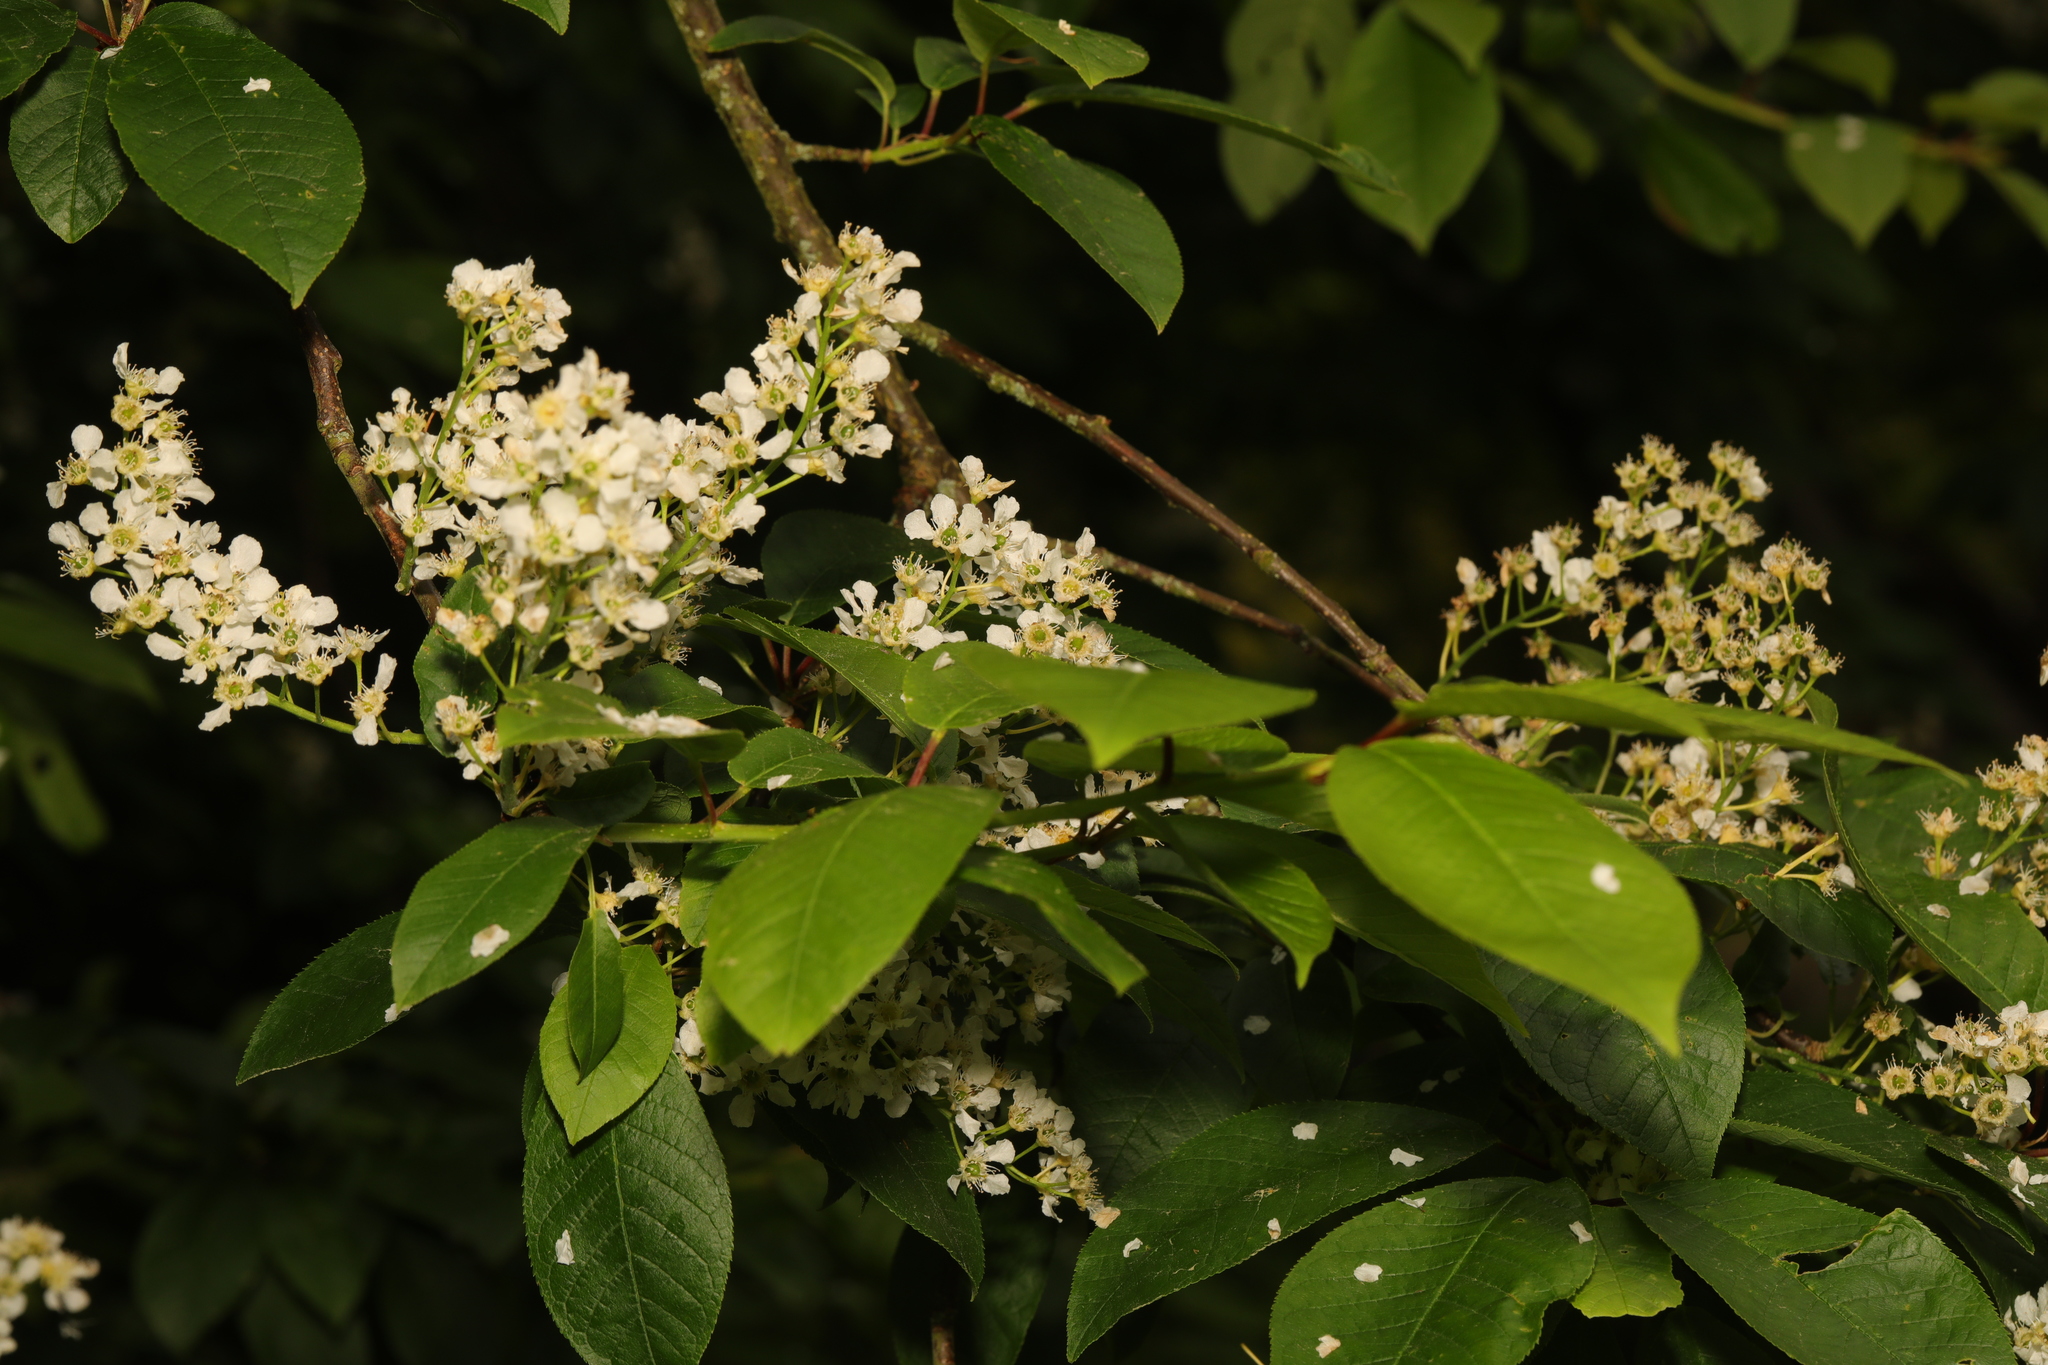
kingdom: Plantae
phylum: Tracheophyta
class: Magnoliopsida
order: Rosales
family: Rosaceae
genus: Prunus
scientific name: Prunus padus
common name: Bird cherry
